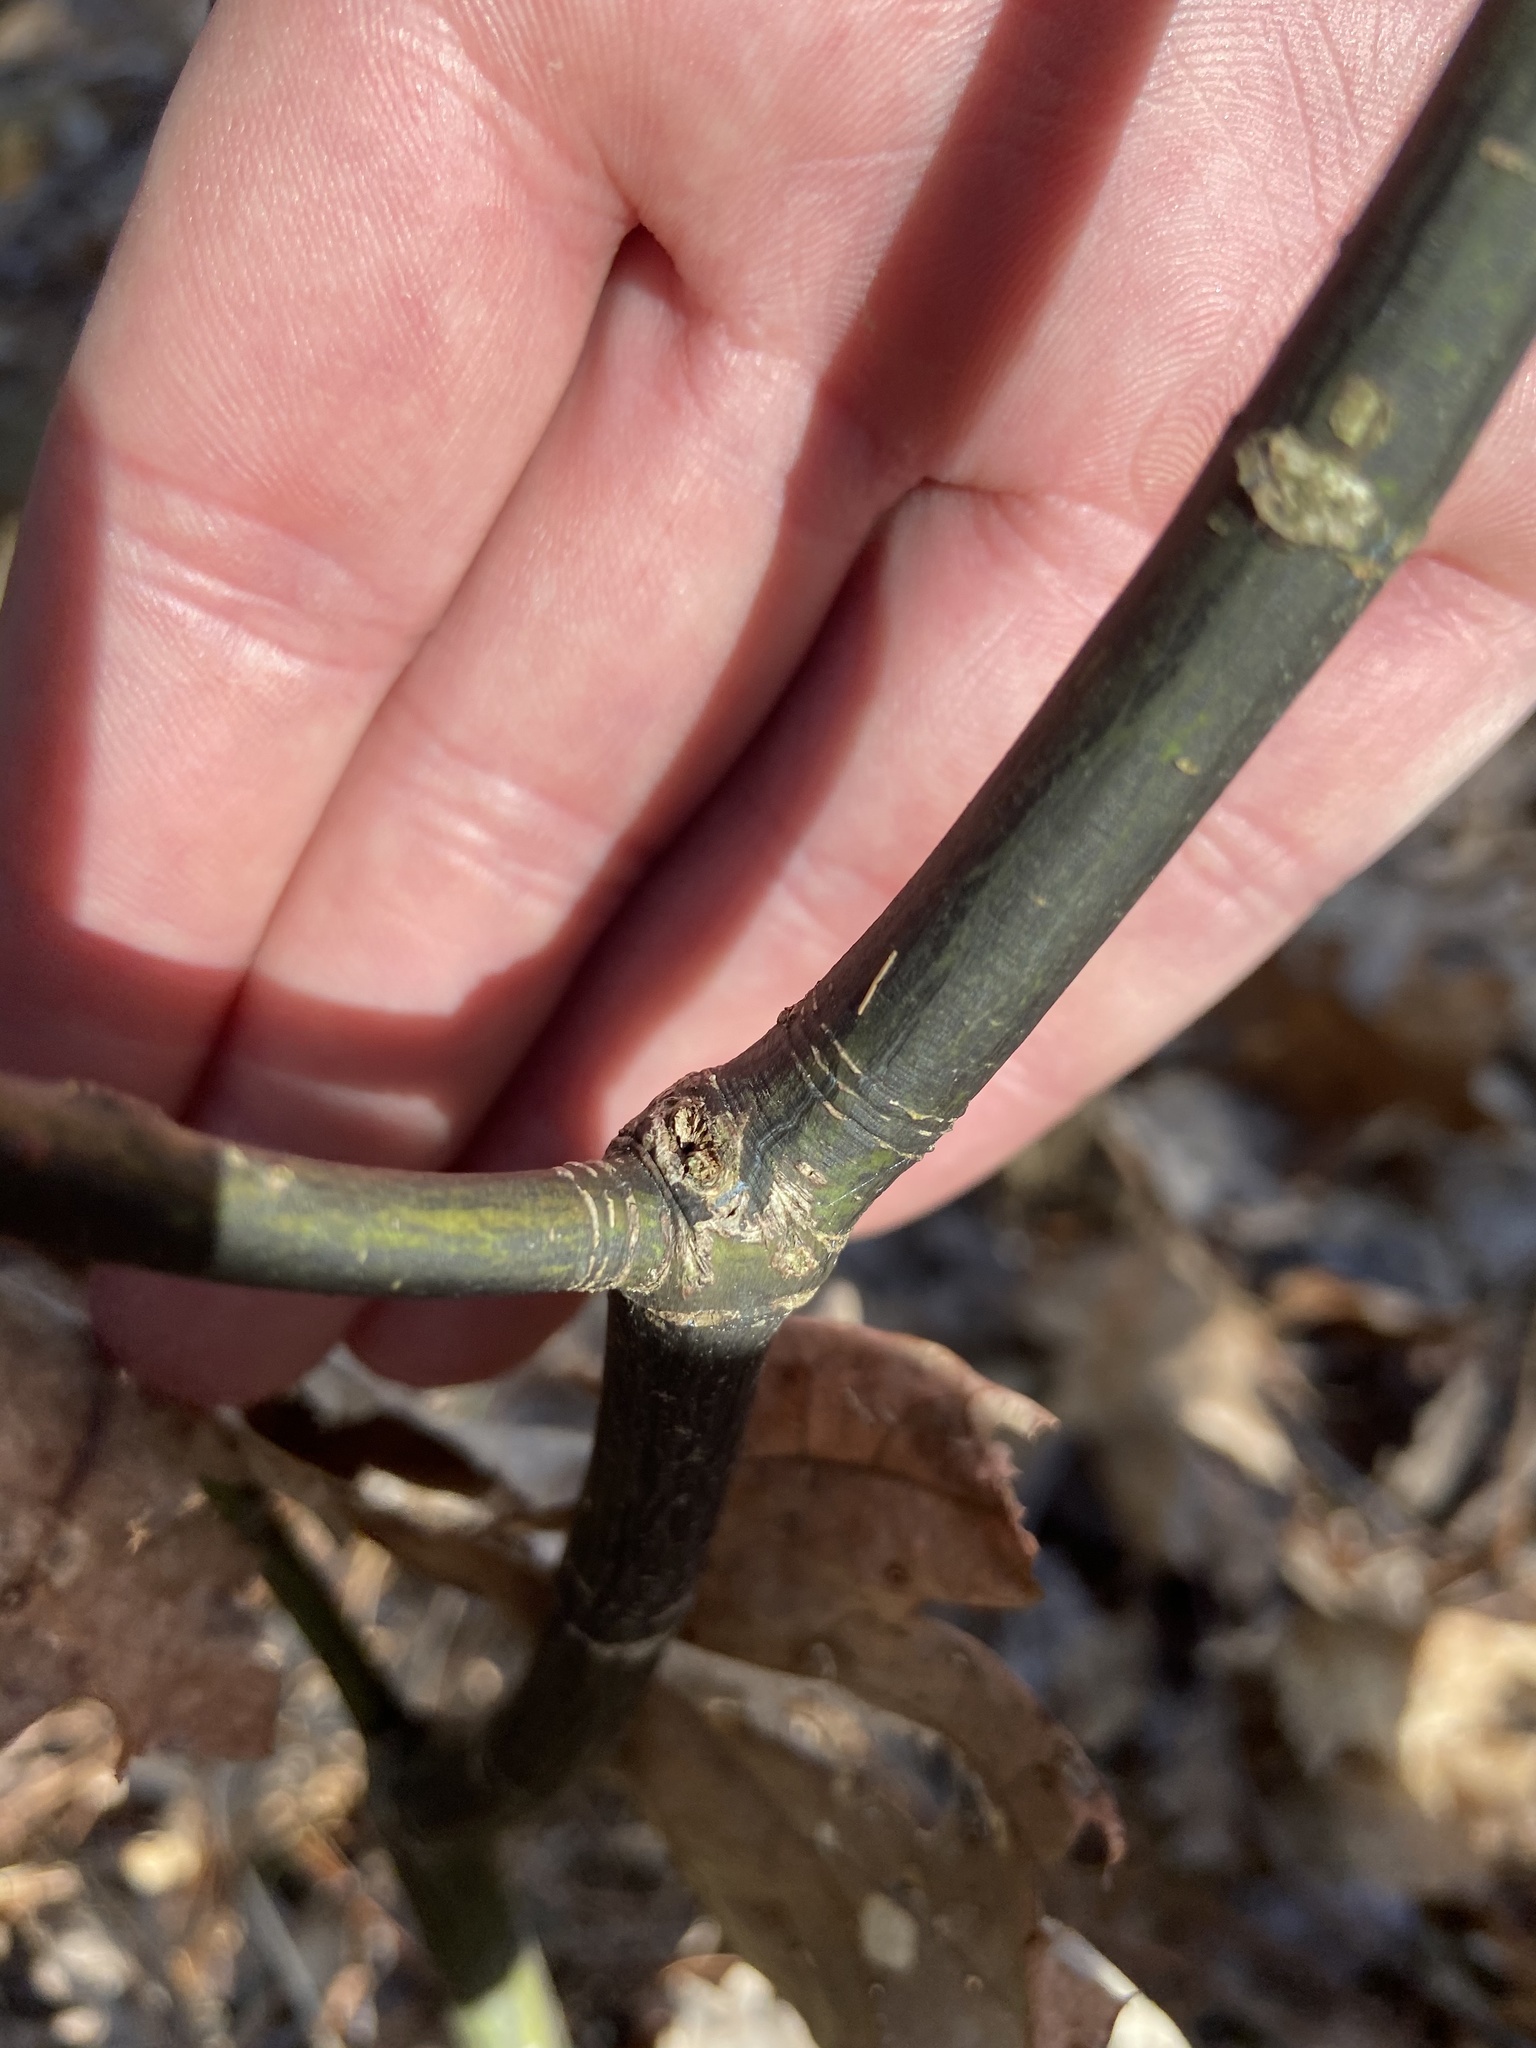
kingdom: Plantae
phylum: Tracheophyta
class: Magnoliopsida
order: Sapindales
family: Sapindaceae
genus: Acer
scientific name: Acer pensylvanicum
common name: Moosewood
